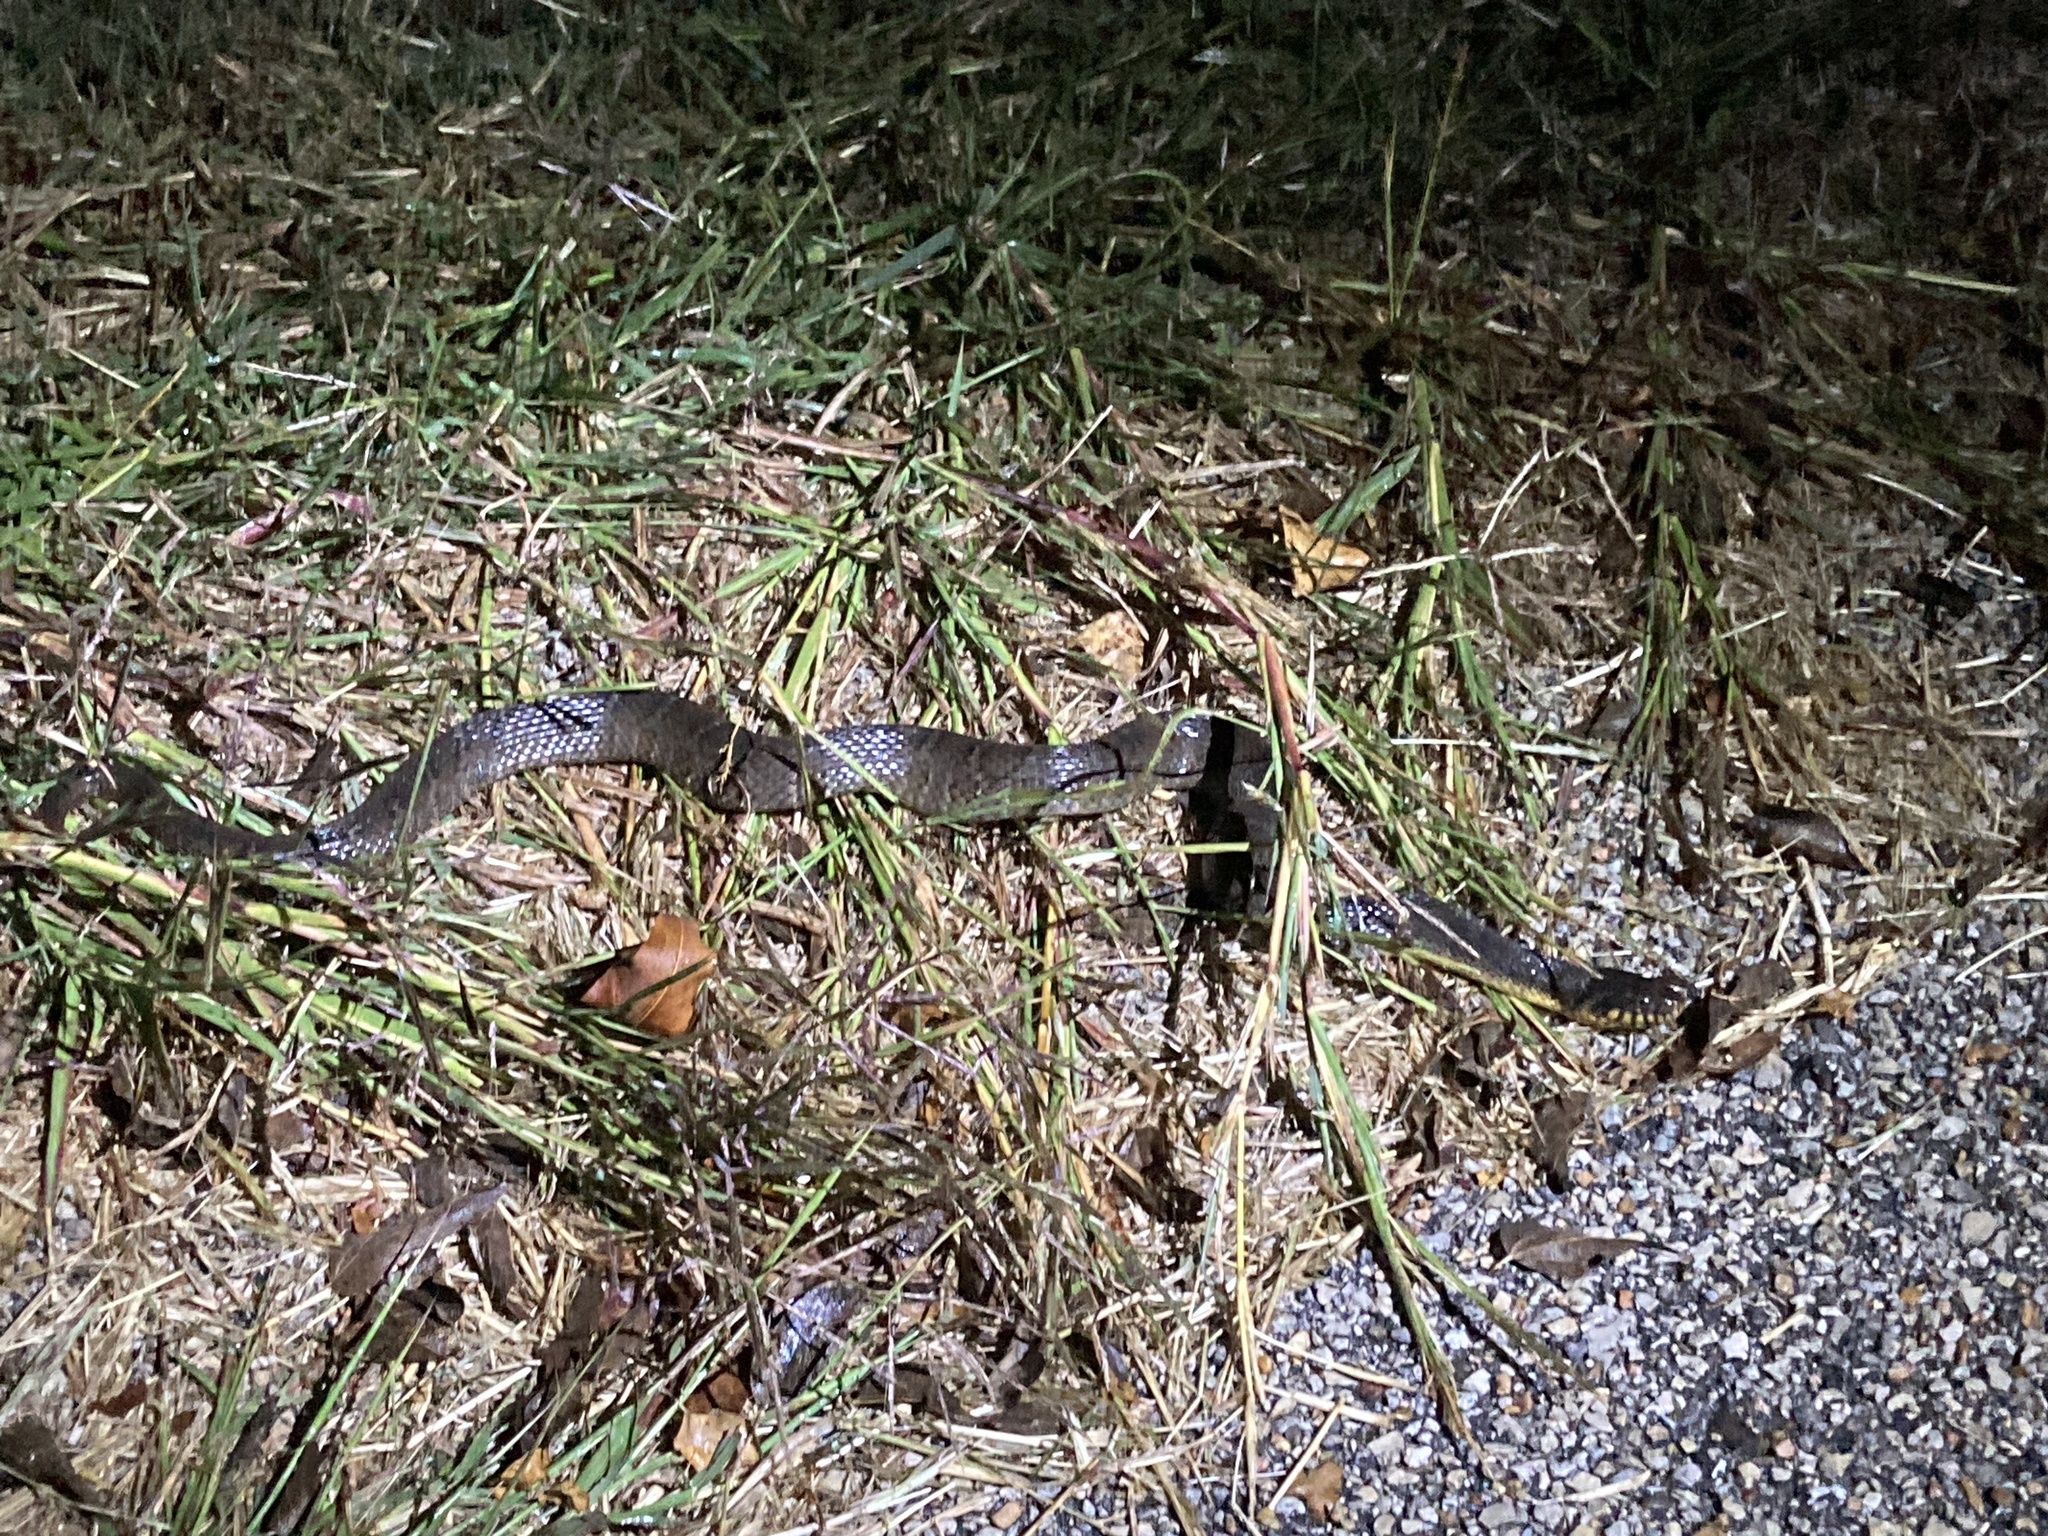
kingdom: Animalia
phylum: Chordata
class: Squamata
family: Colubridae
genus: Nerodia
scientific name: Nerodia erythrogaster
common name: Plainbelly water snake
